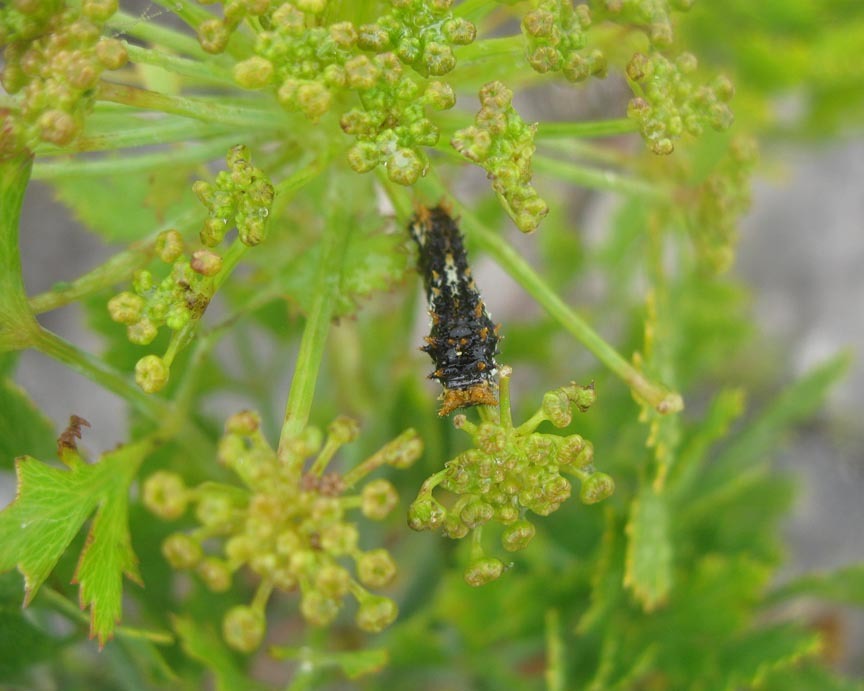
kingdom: Animalia
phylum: Arthropoda
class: Insecta
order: Lepidoptera
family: Papilionidae
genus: Papilio
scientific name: Papilio demodocus
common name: Christmas butterfly
